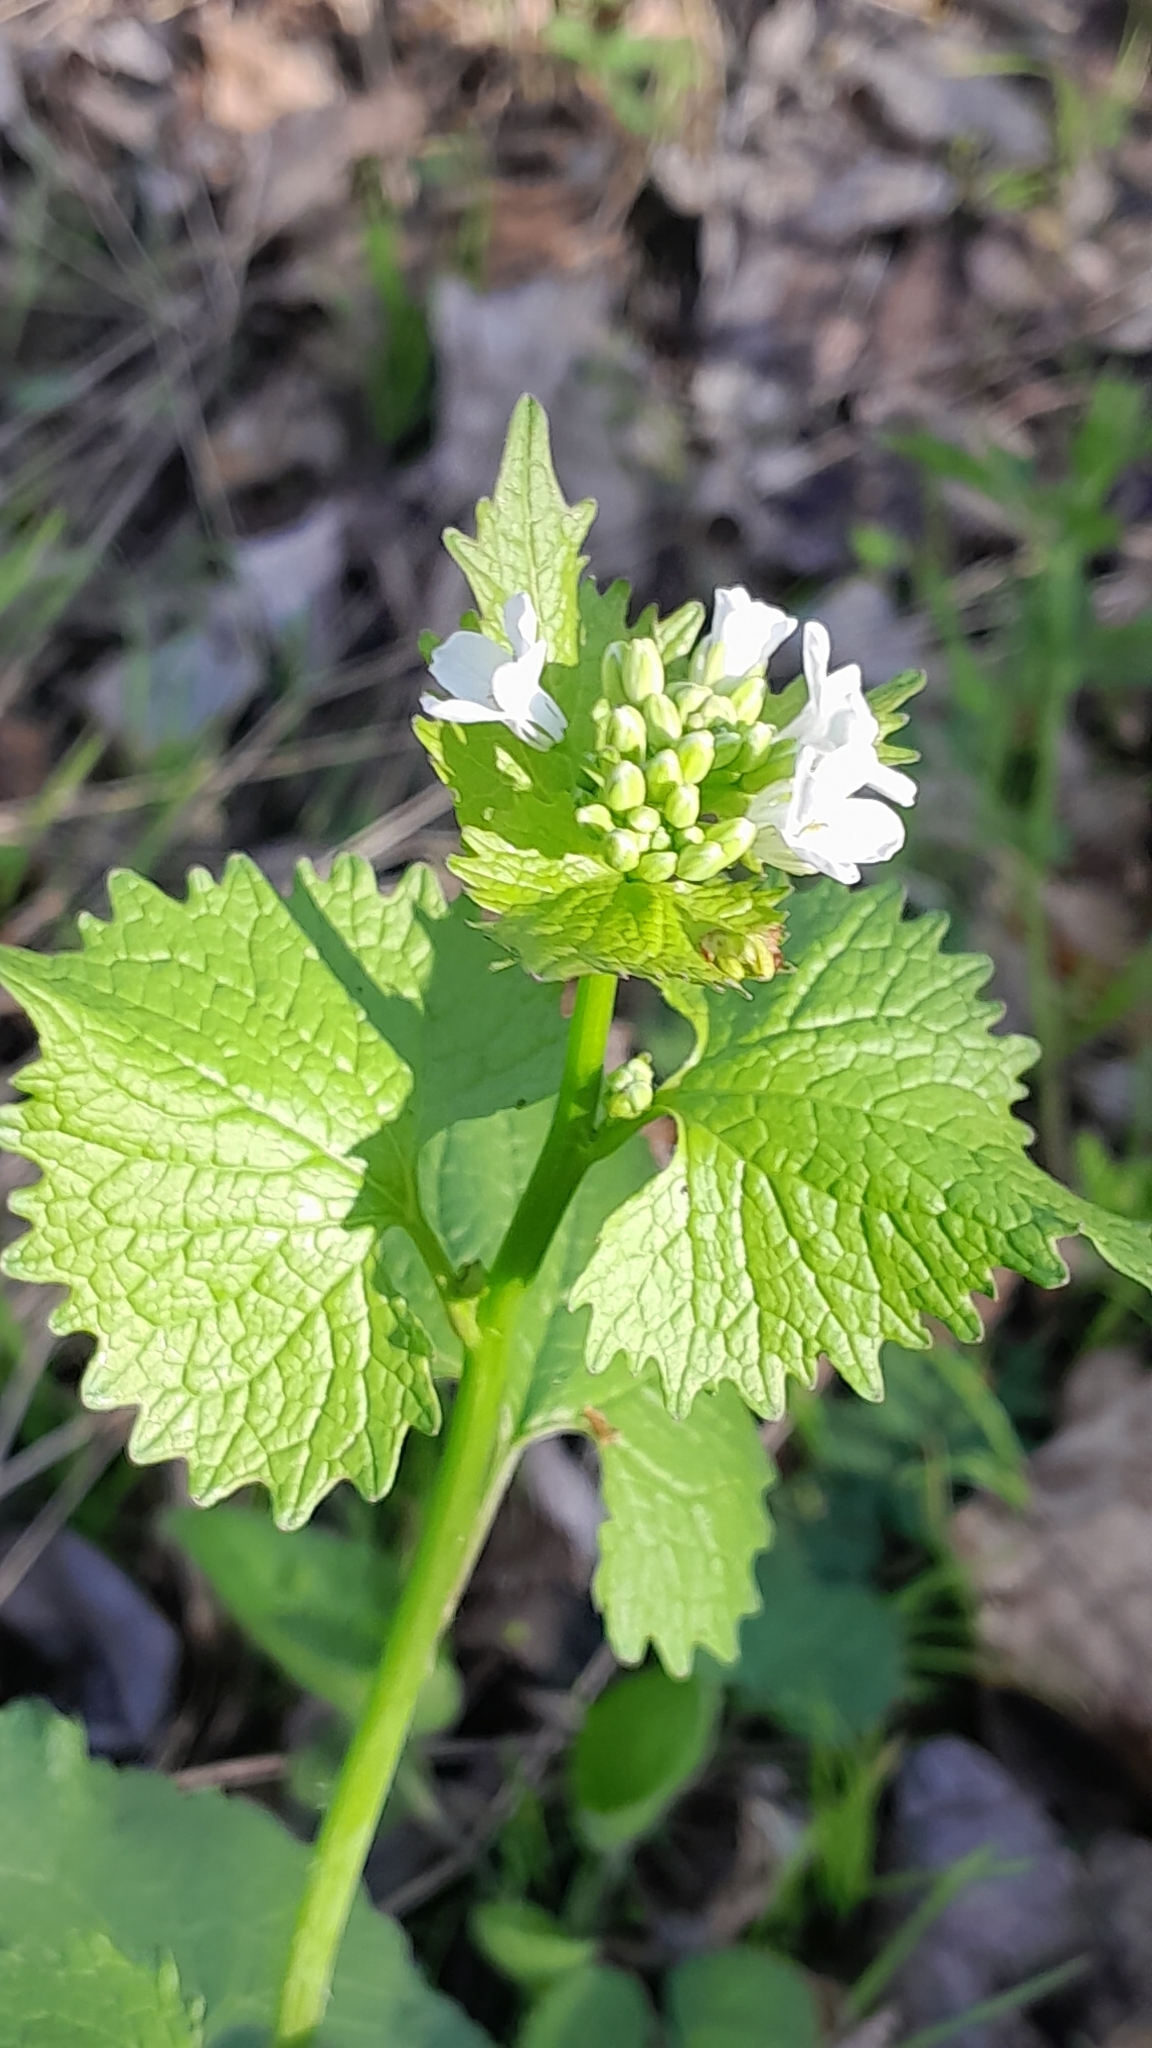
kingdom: Plantae
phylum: Tracheophyta
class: Magnoliopsida
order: Brassicales
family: Brassicaceae
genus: Alliaria
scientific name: Alliaria petiolata
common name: Garlic mustard
